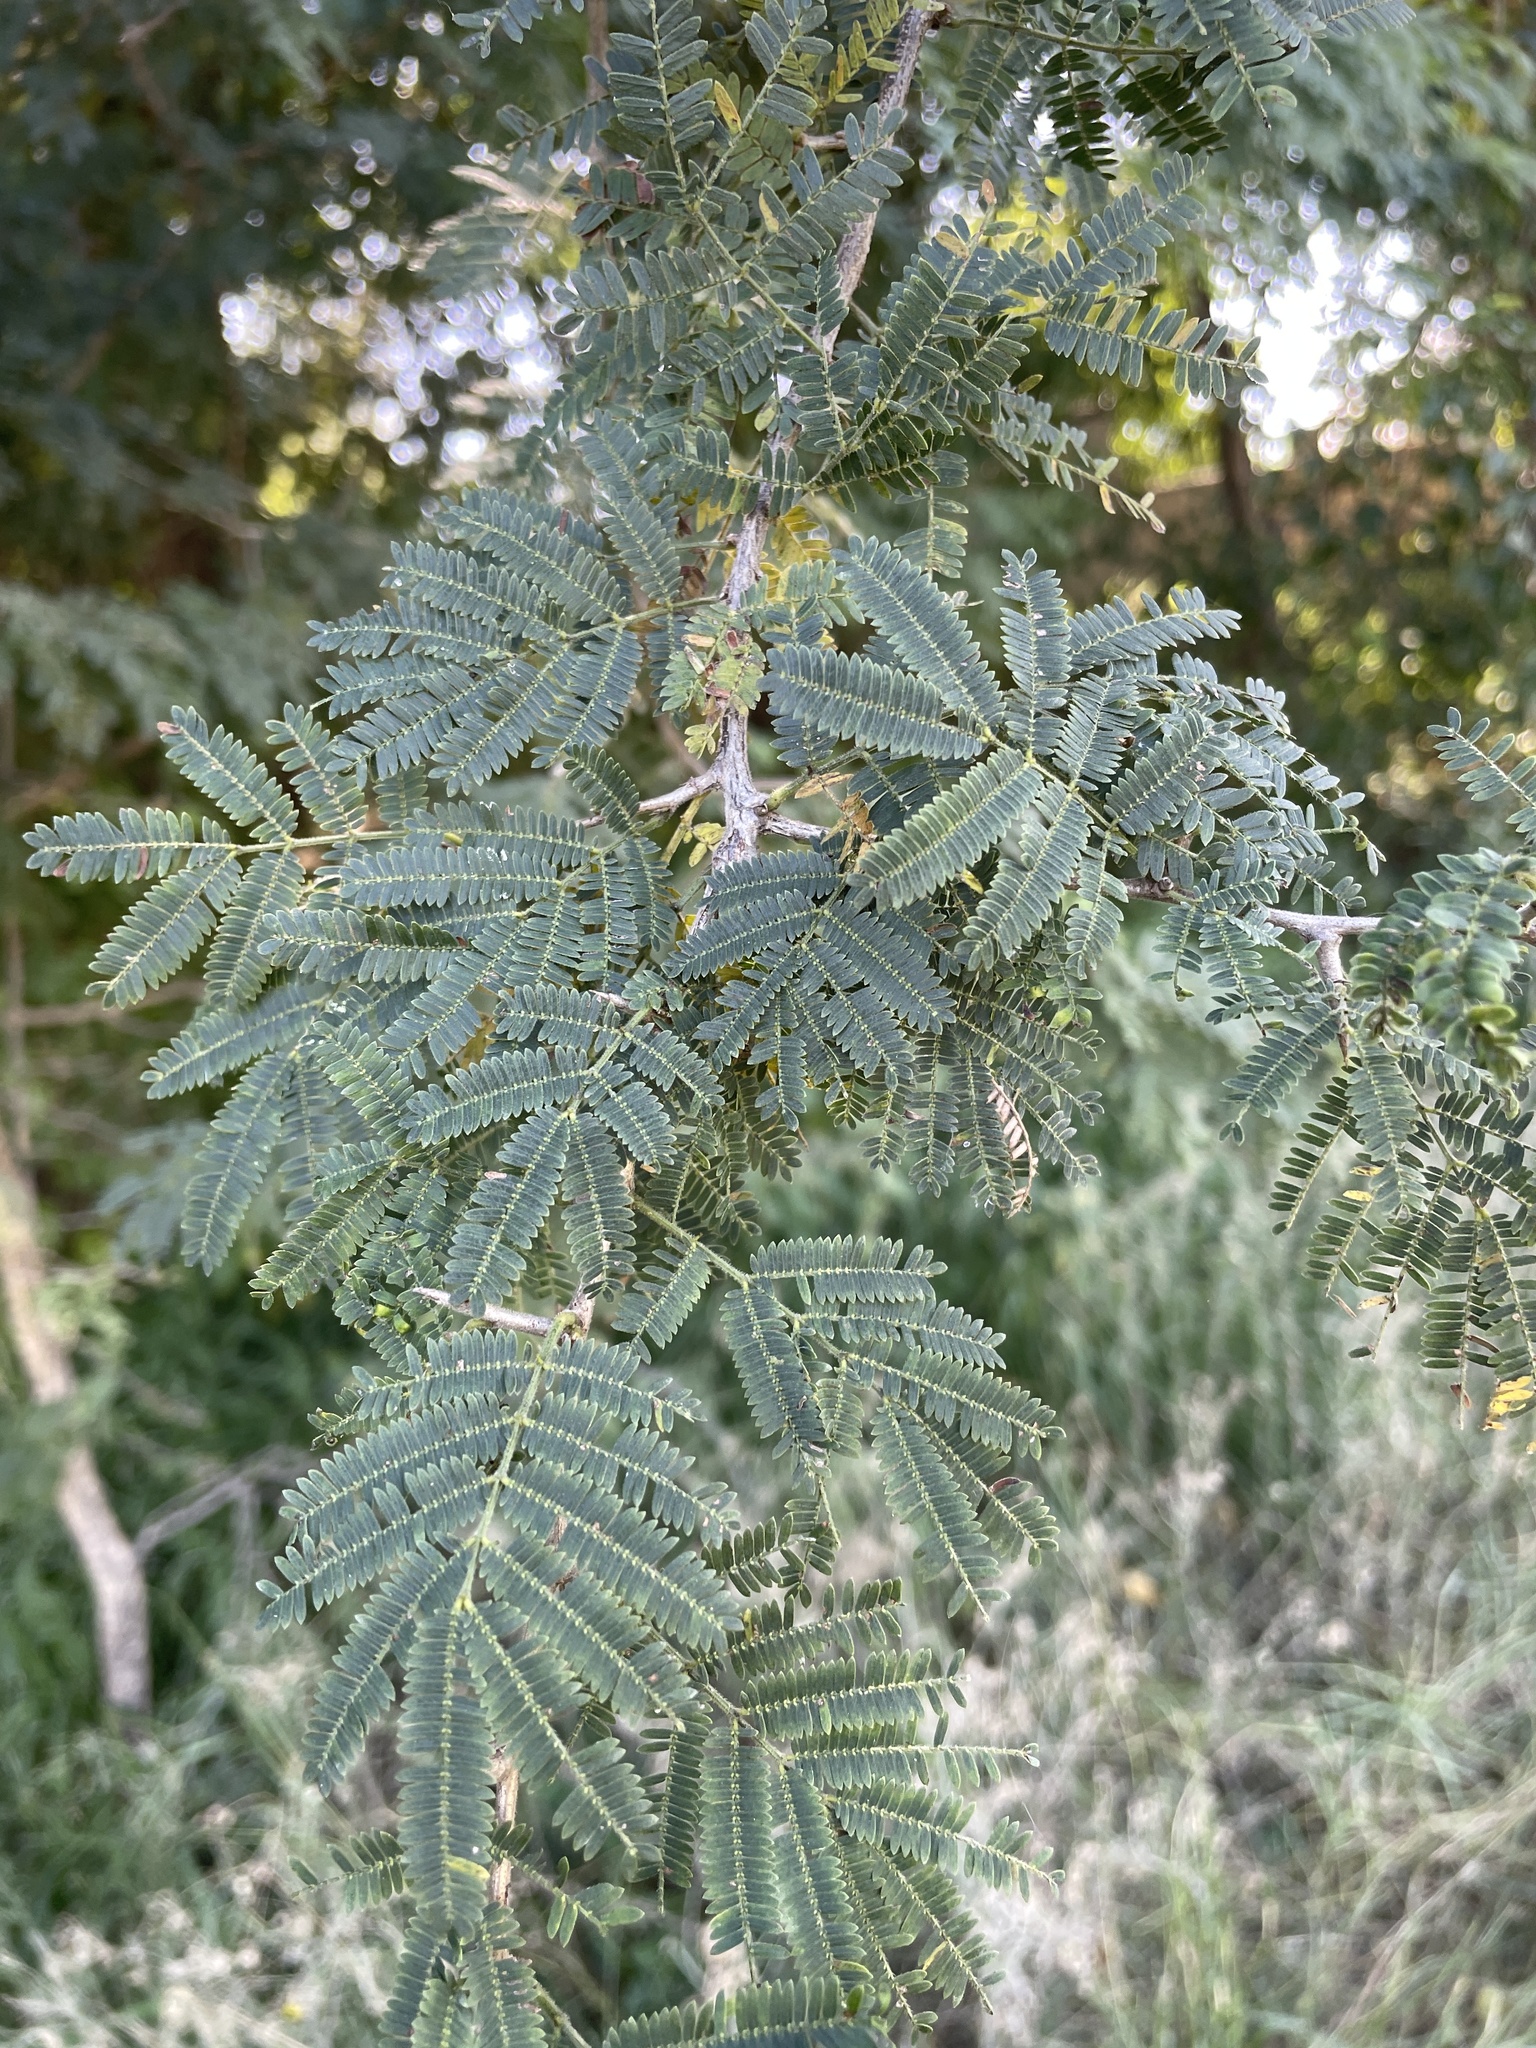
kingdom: Plantae
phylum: Tracheophyta
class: Magnoliopsida
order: Fabales
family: Fabaceae
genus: Dichrostachys
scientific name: Dichrostachys cinerea
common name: Sicklebush
